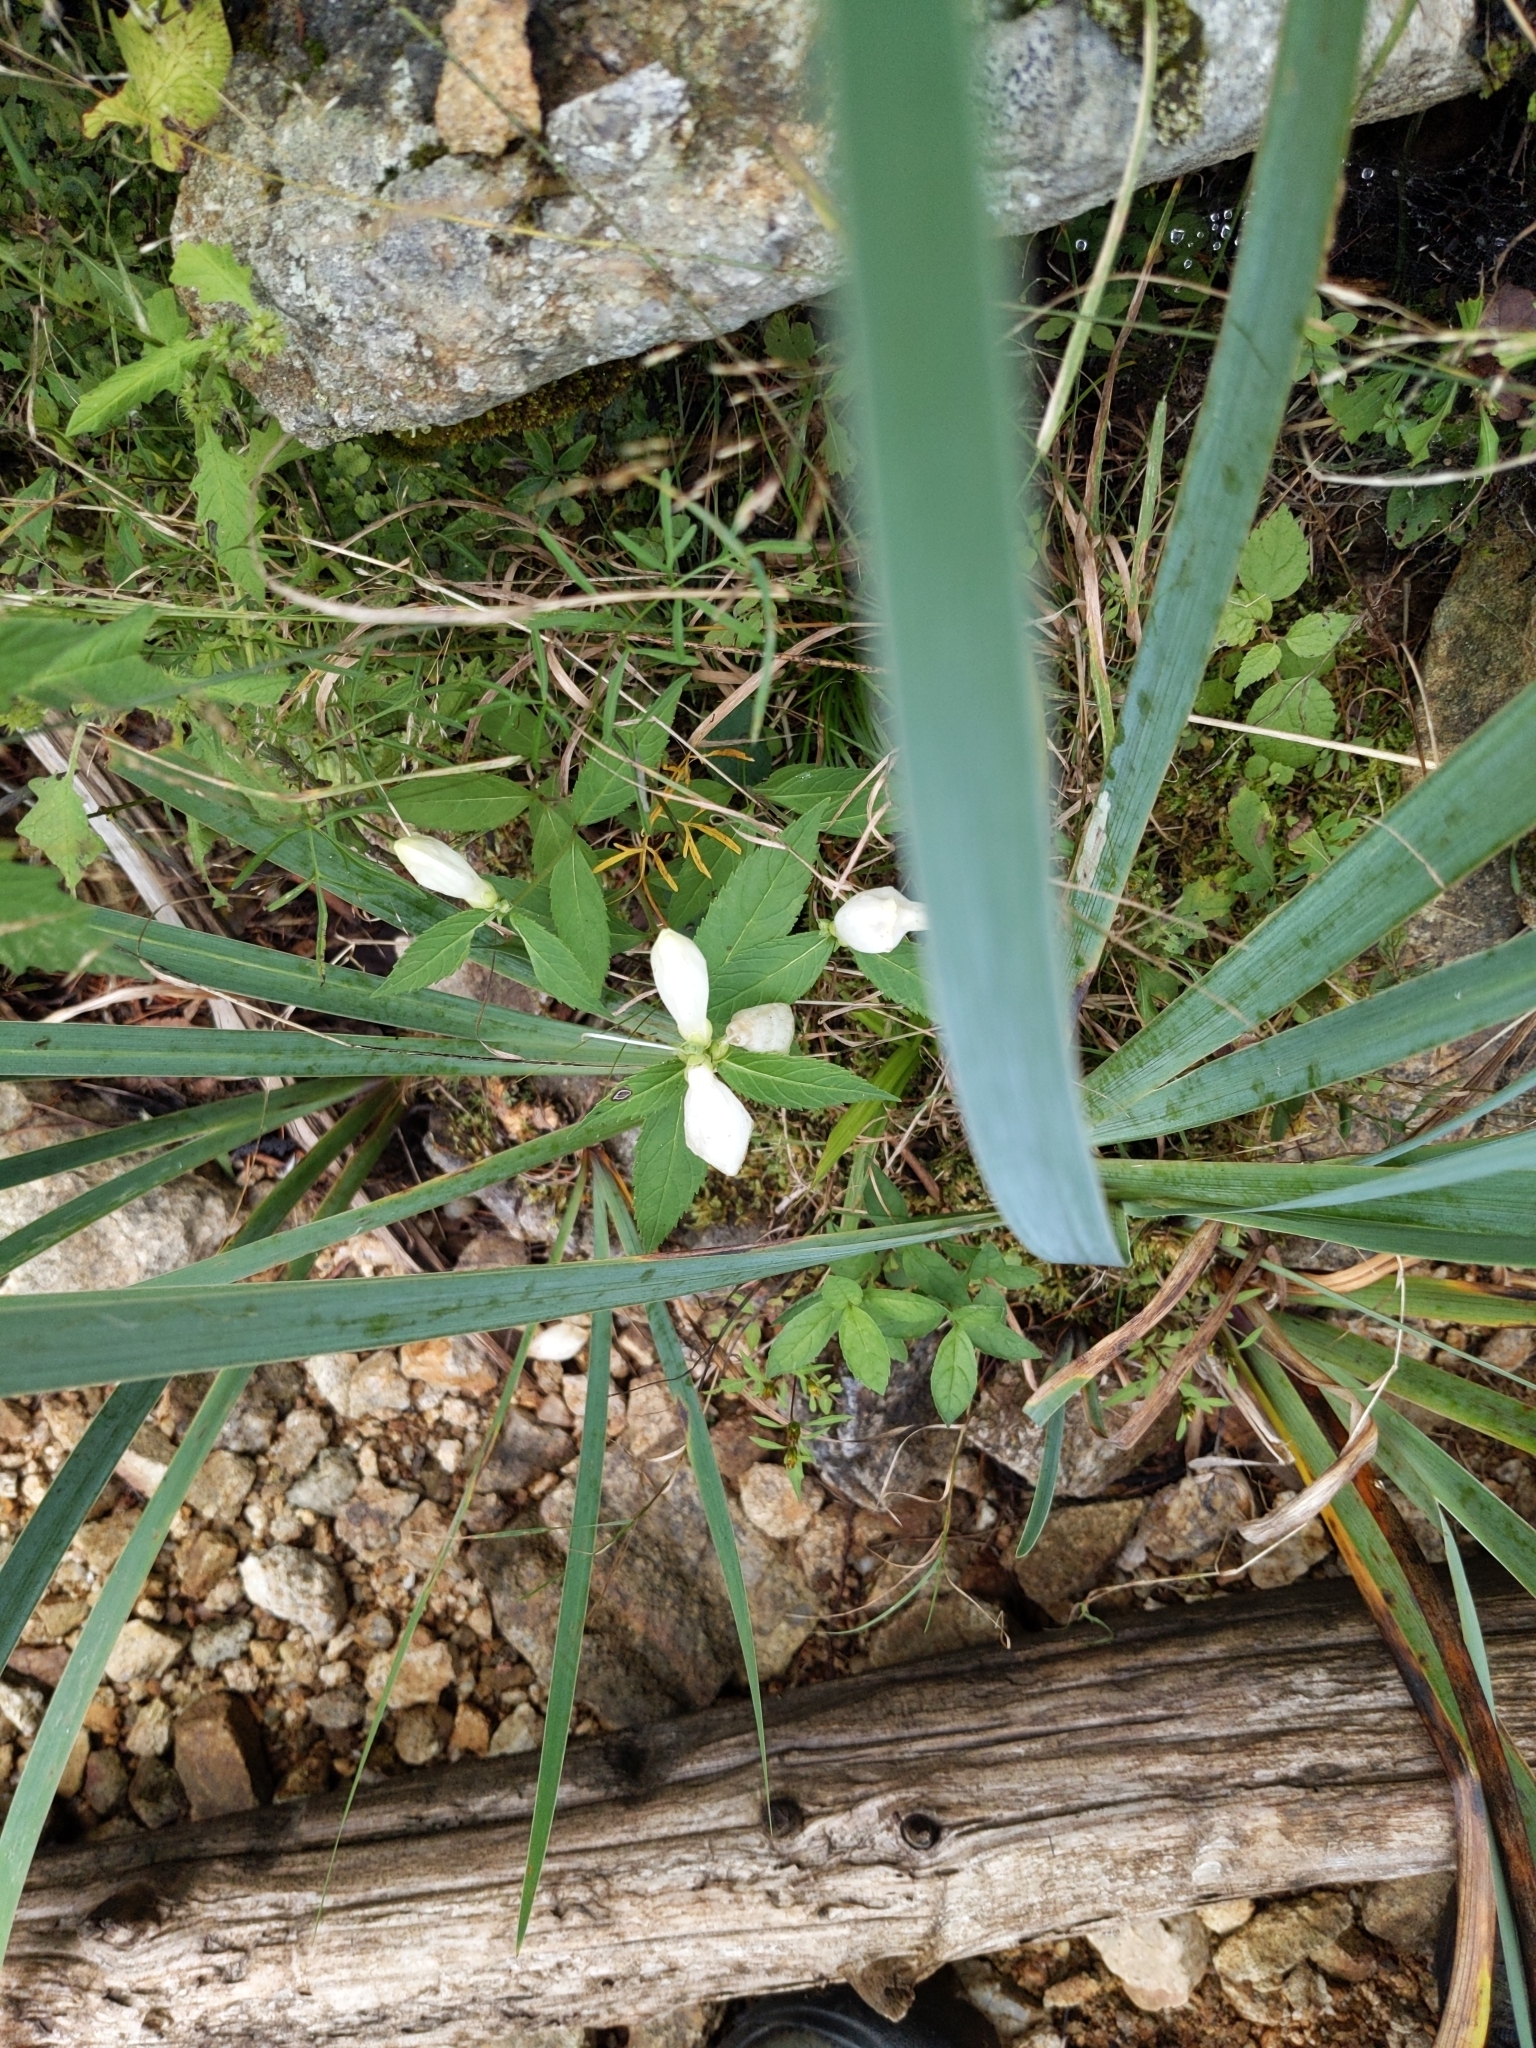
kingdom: Plantae
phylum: Tracheophyta
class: Magnoliopsida
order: Lamiales
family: Plantaginaceae
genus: Chelone
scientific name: Chelone glabra
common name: Snakehead
